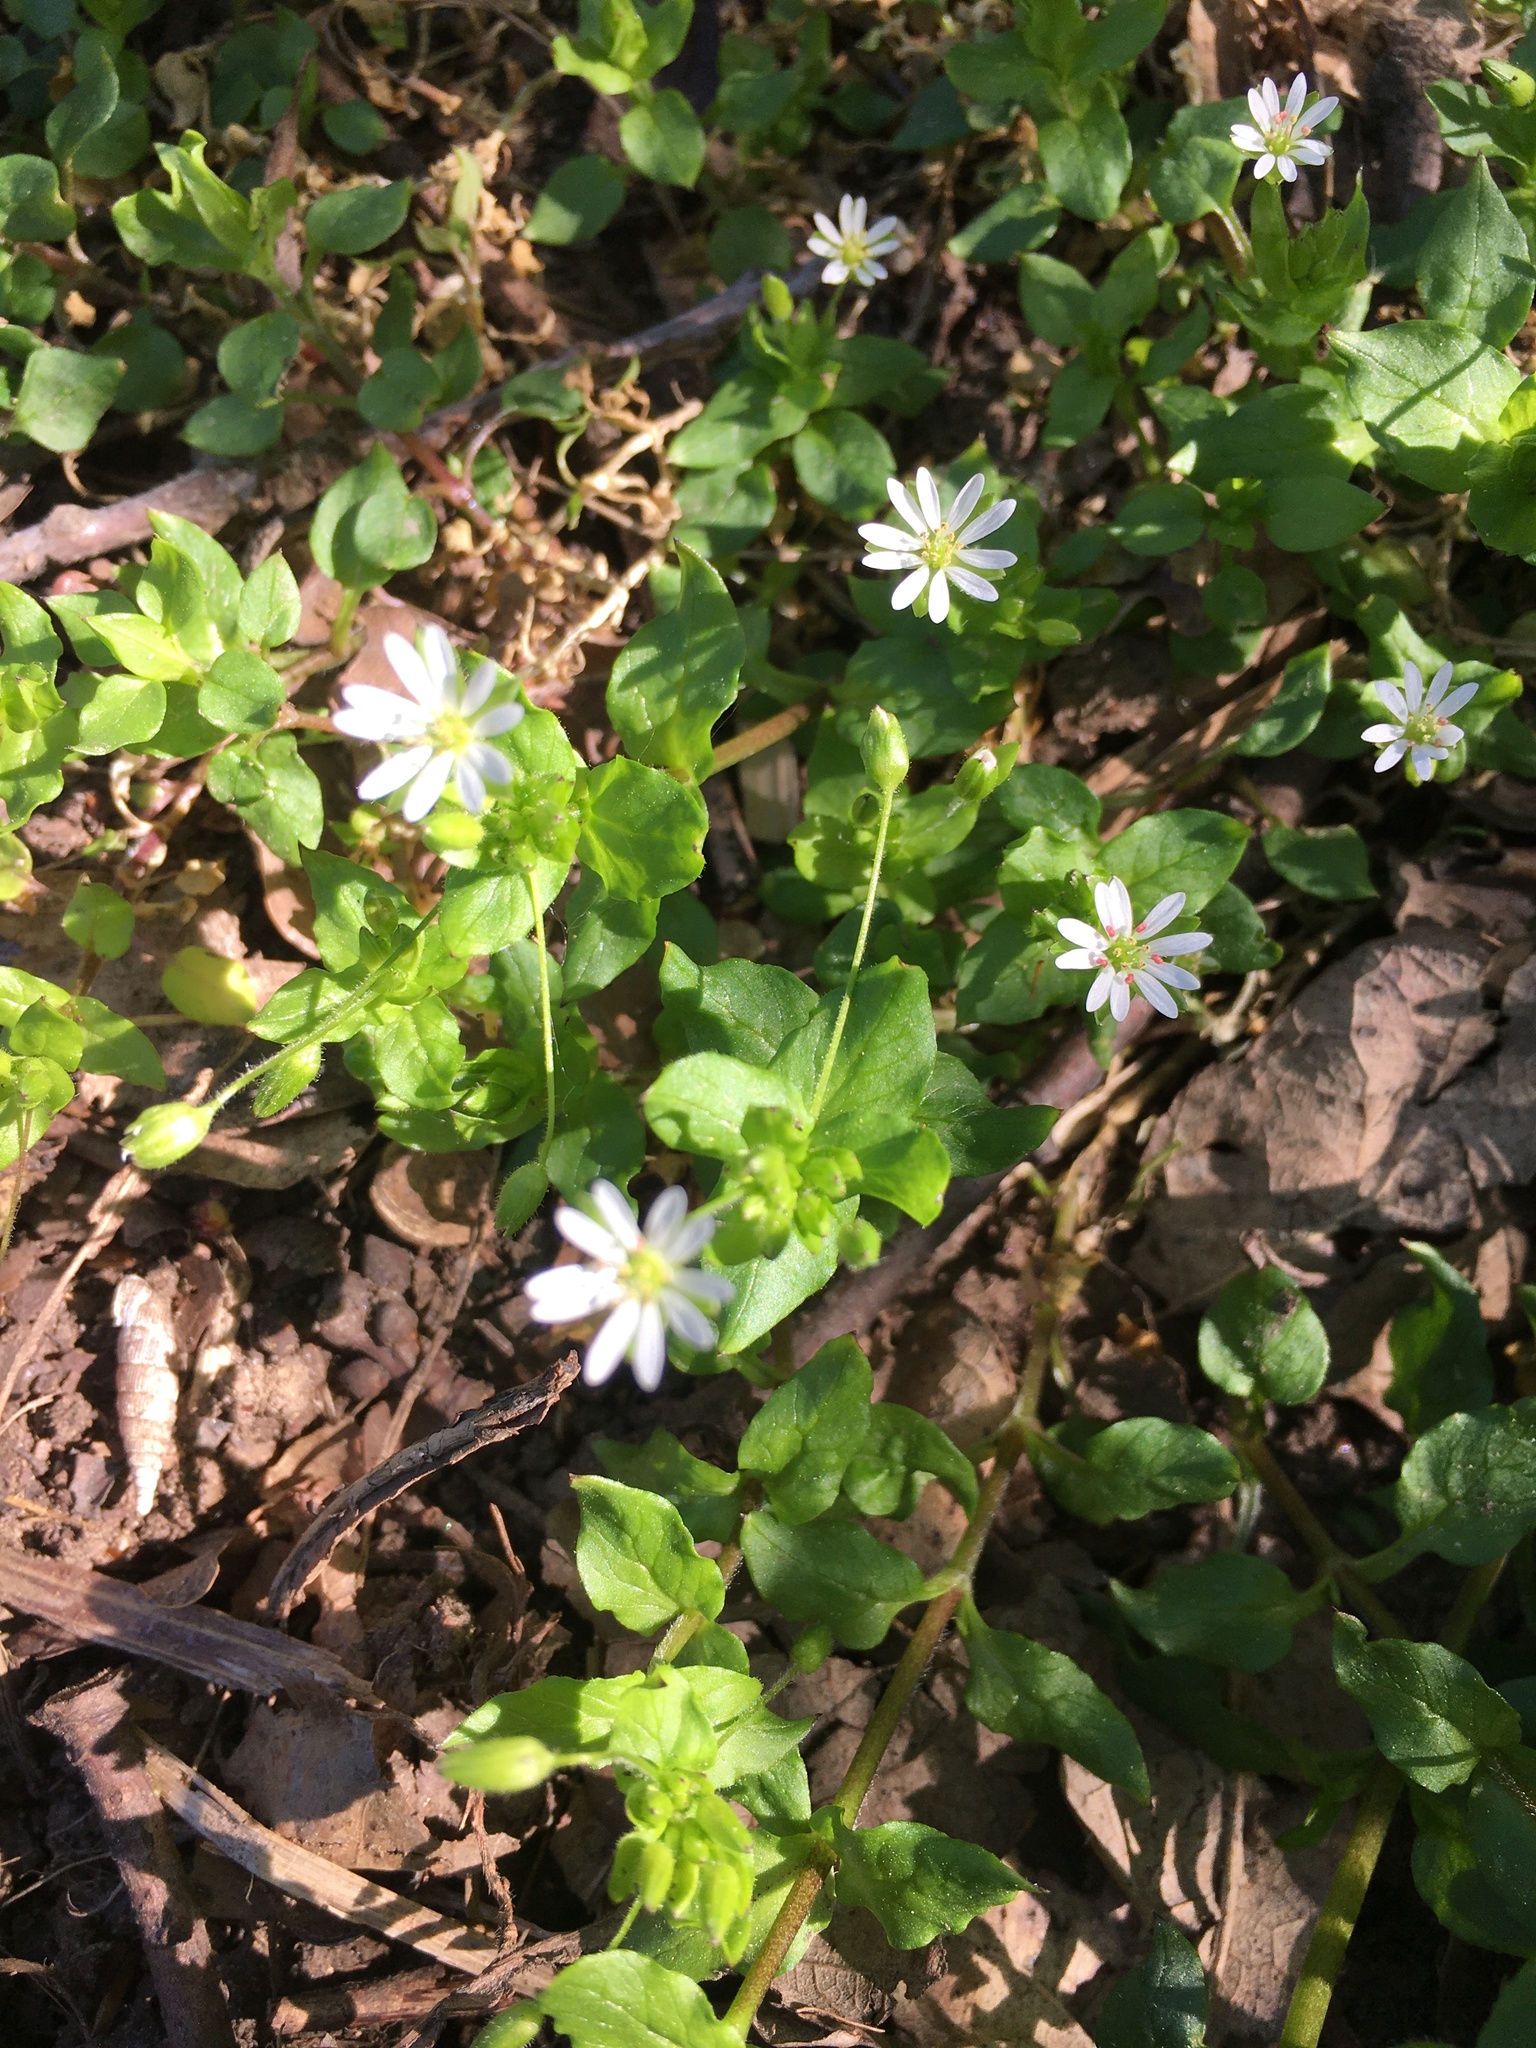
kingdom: Plantae
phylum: Tracheophyta
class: Magnoliopsida
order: Caryophyllales
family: Caryophyllaceae
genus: Stellaria
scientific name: Stellaria media
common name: Common chickweed
